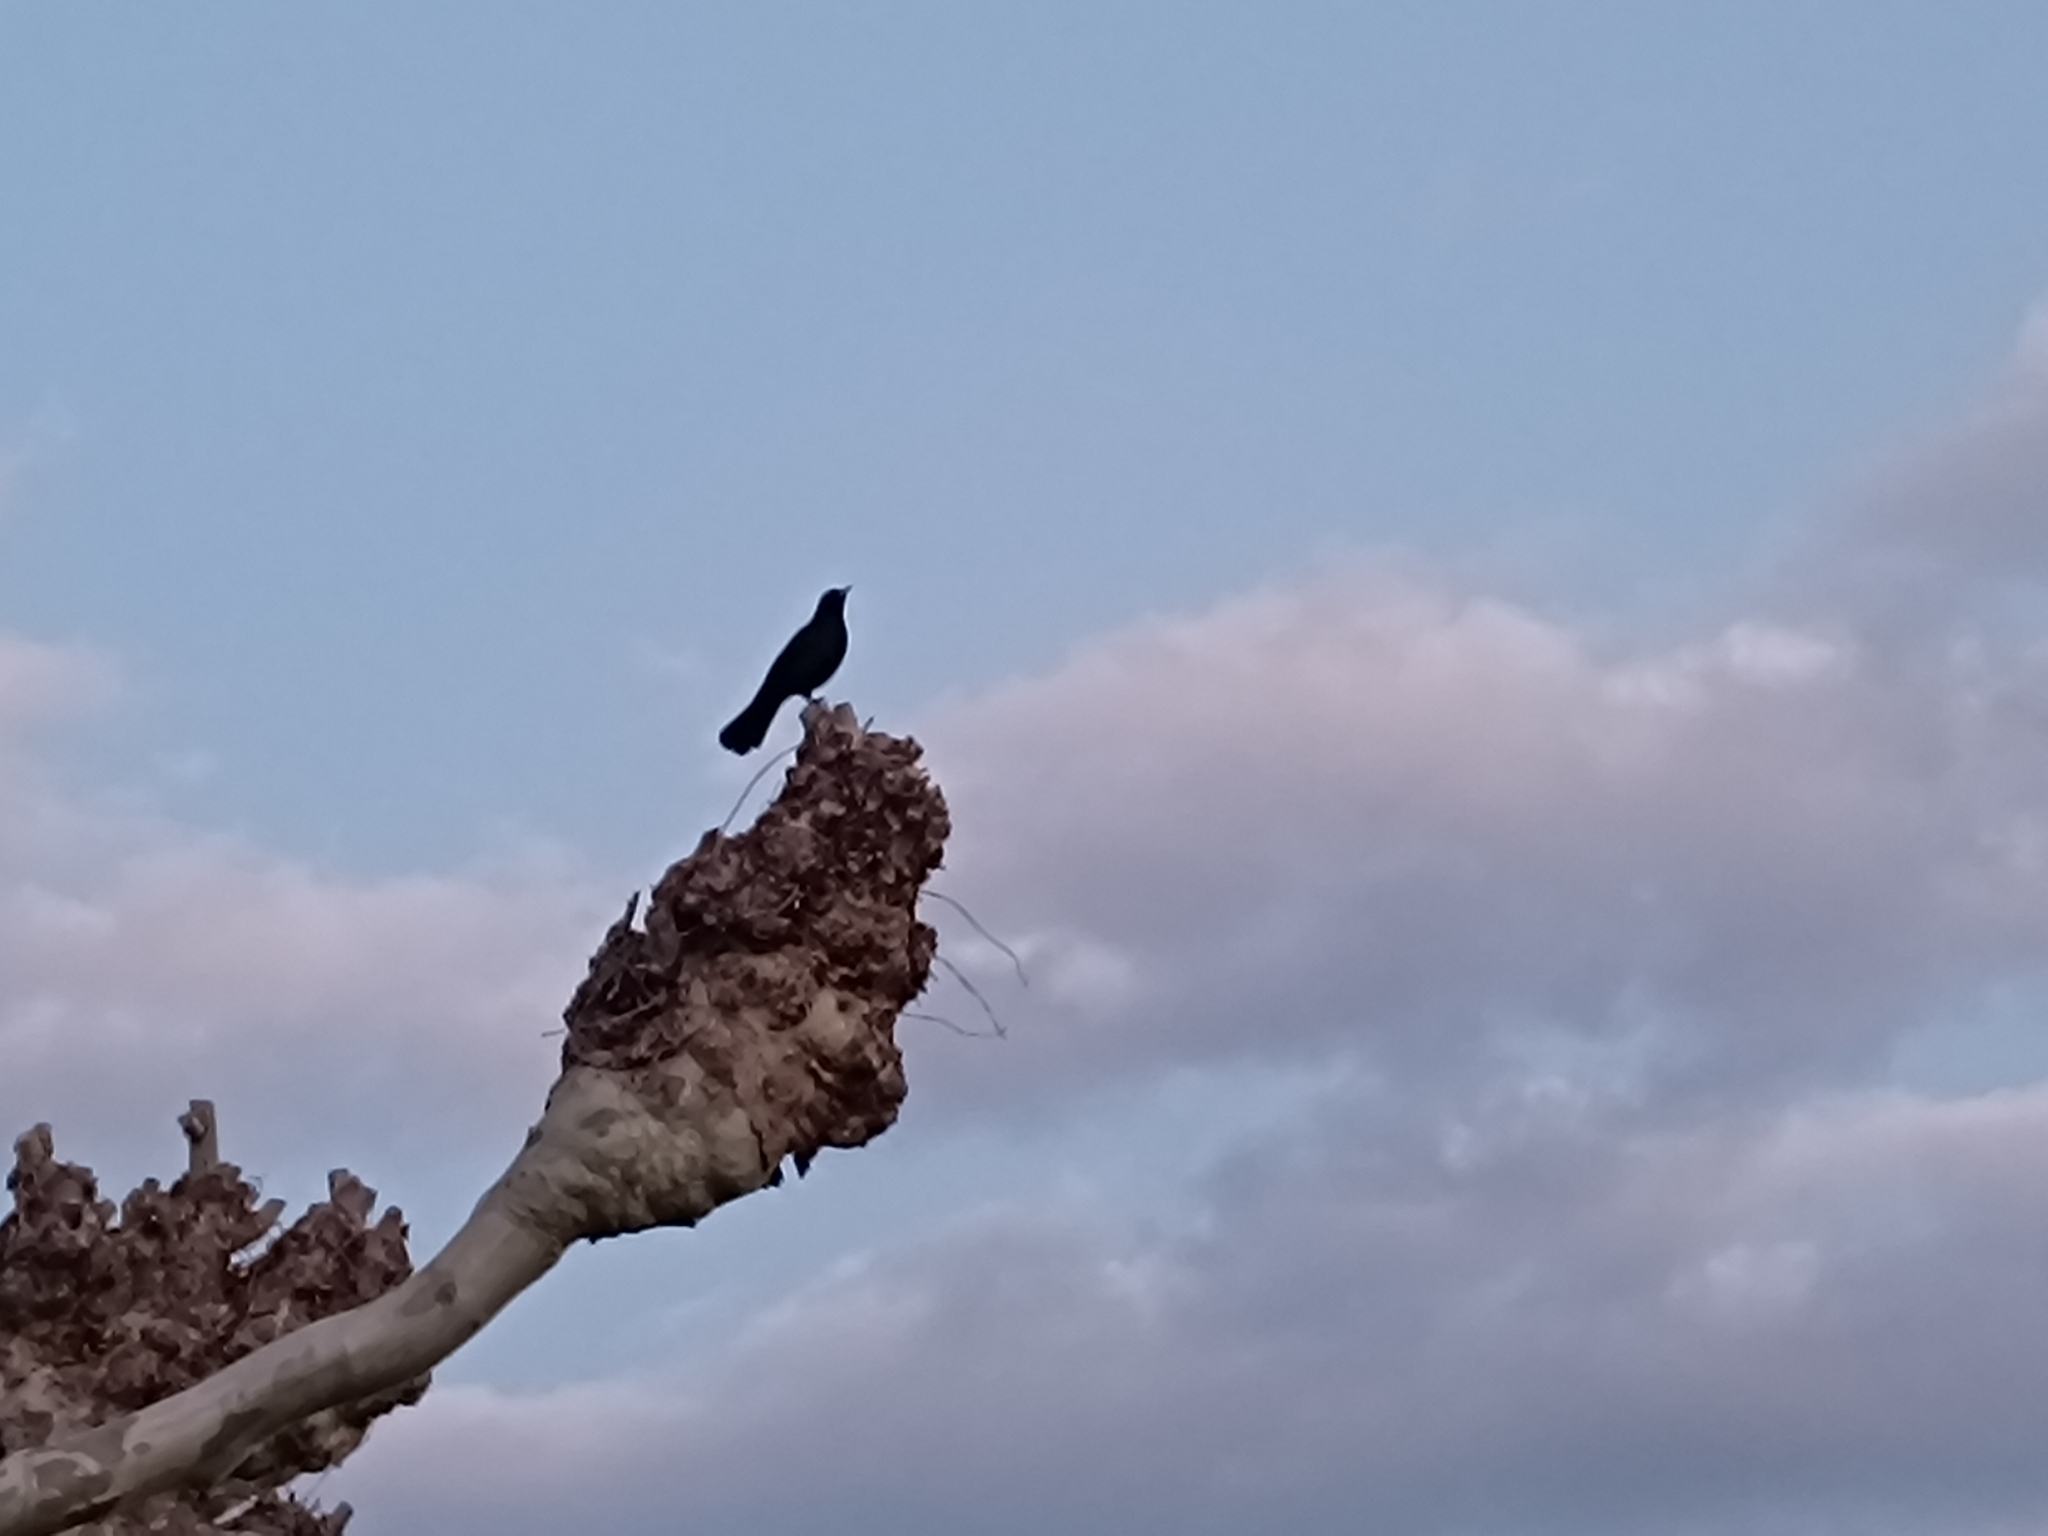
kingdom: Animalia
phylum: Chordata
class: Aves
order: Passeriformes
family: Turdidae
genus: Turdus
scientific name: Turdus merula
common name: Common blackbird
